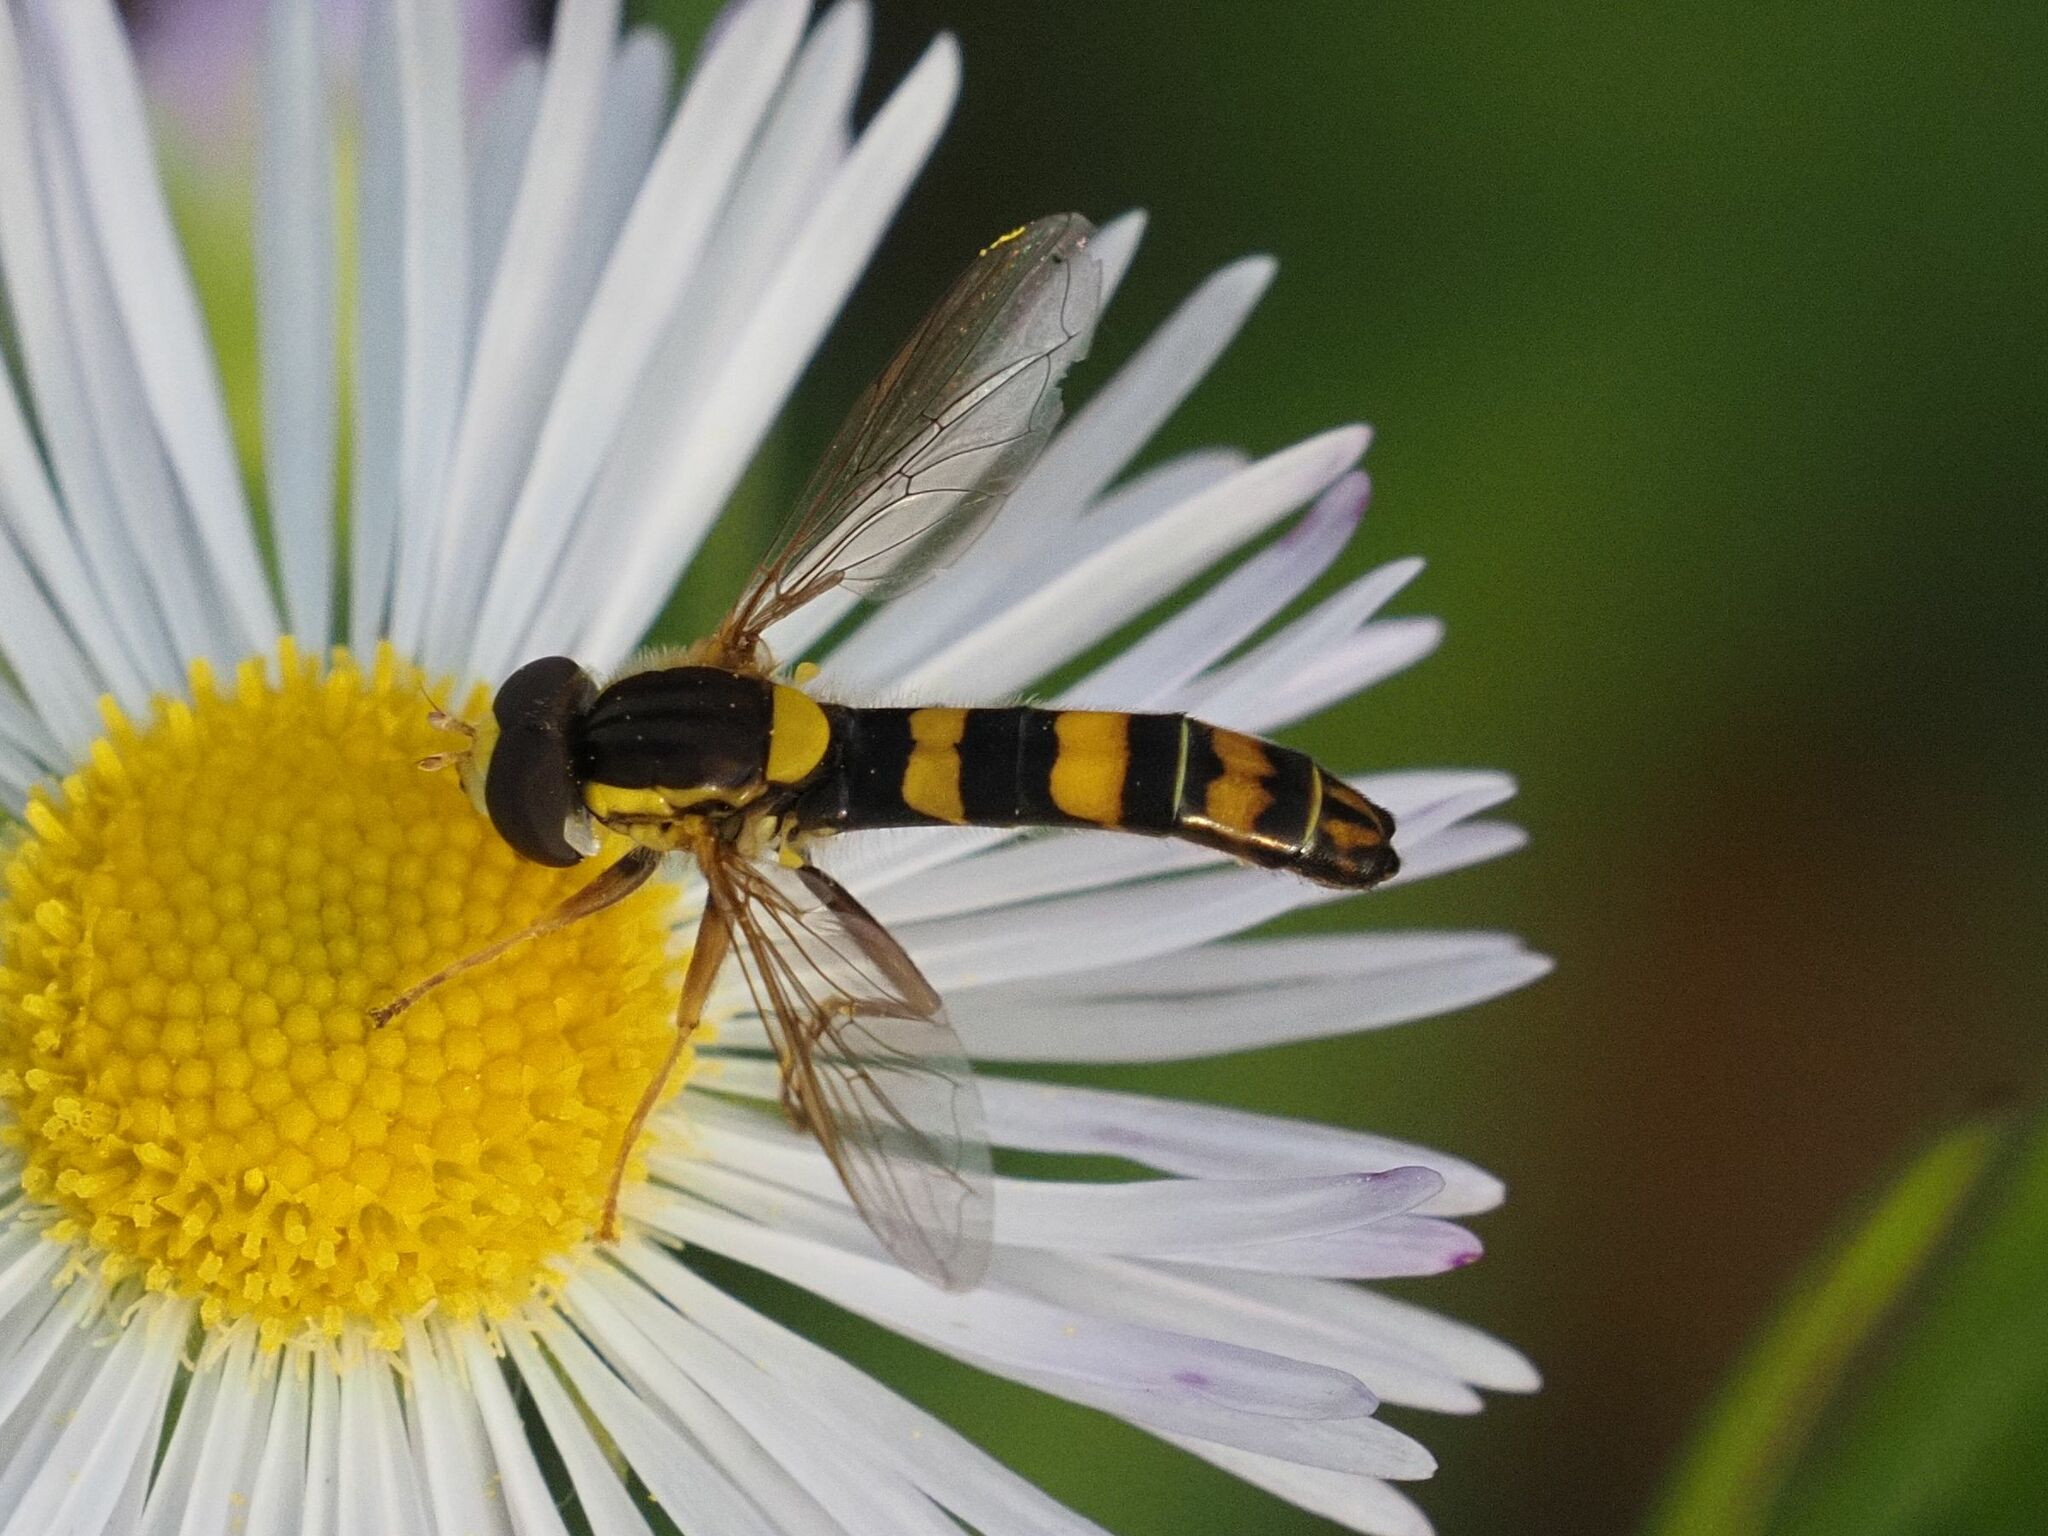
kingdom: Animalia
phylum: Arthropoda
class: Insecta
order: Diptera
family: Syrphidae
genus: Sphaerophoria
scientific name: Sphaerophoria scripta
